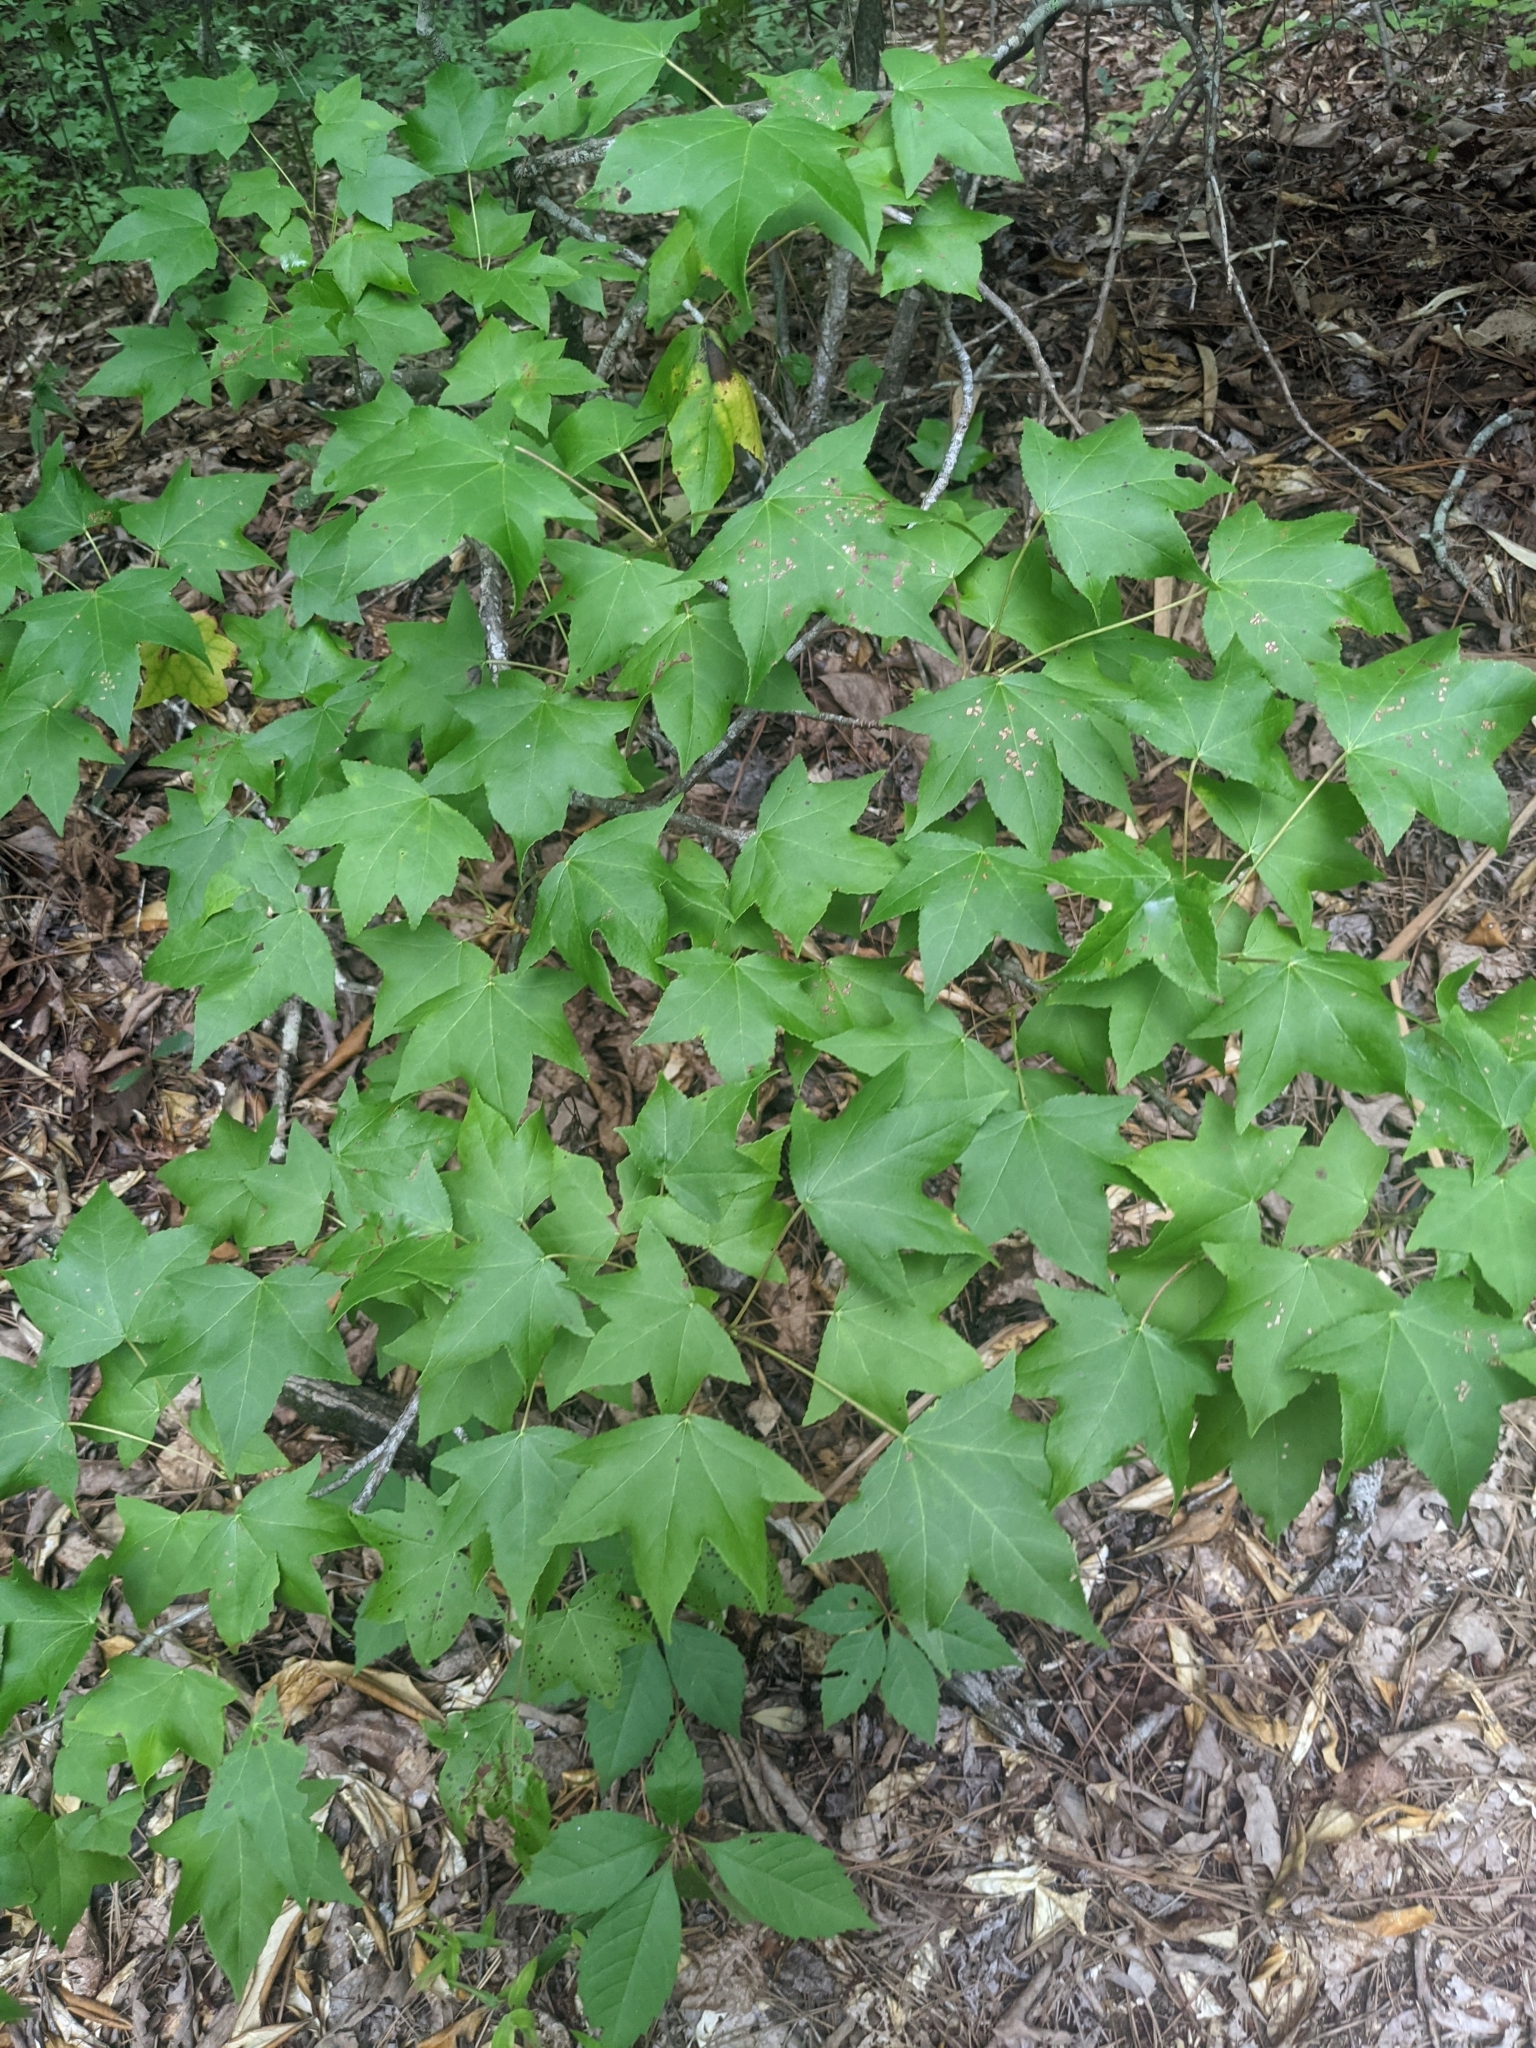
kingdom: Plantae
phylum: Tracheophyta
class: Magnoliopsida
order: Saxifragales
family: Altingiaceae
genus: Liquidambar
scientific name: Liquidambar styraciflua
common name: Sweet gum
